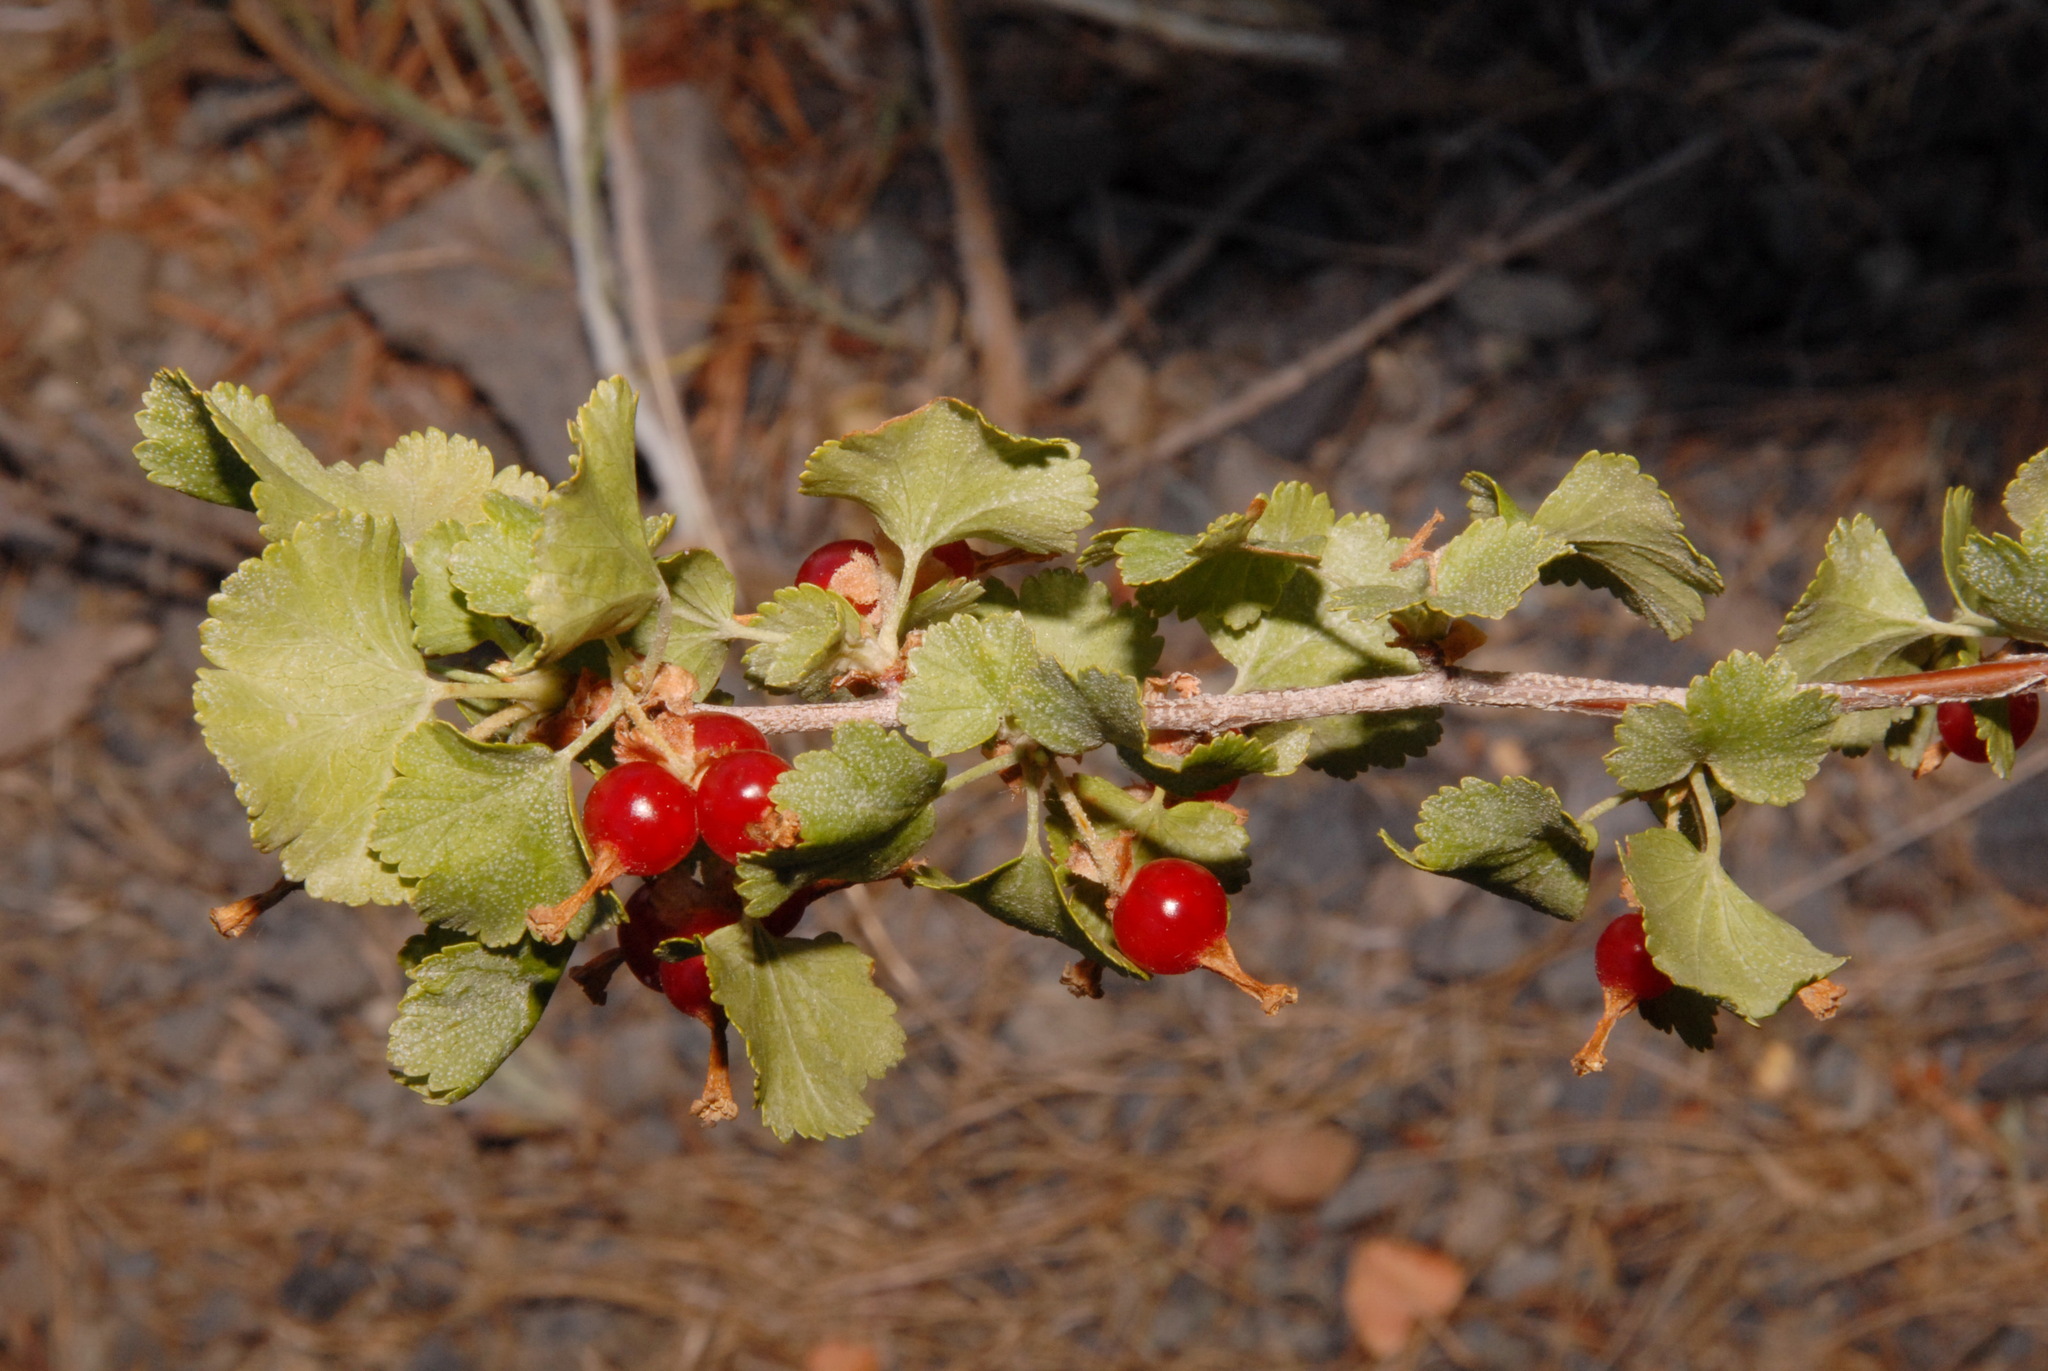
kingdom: Plantae
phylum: Tracheophyta
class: Magnoliopsida
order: Saxifragales
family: Grossulariaceae
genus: Ribes
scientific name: Ribes cereum
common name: Wax currant
